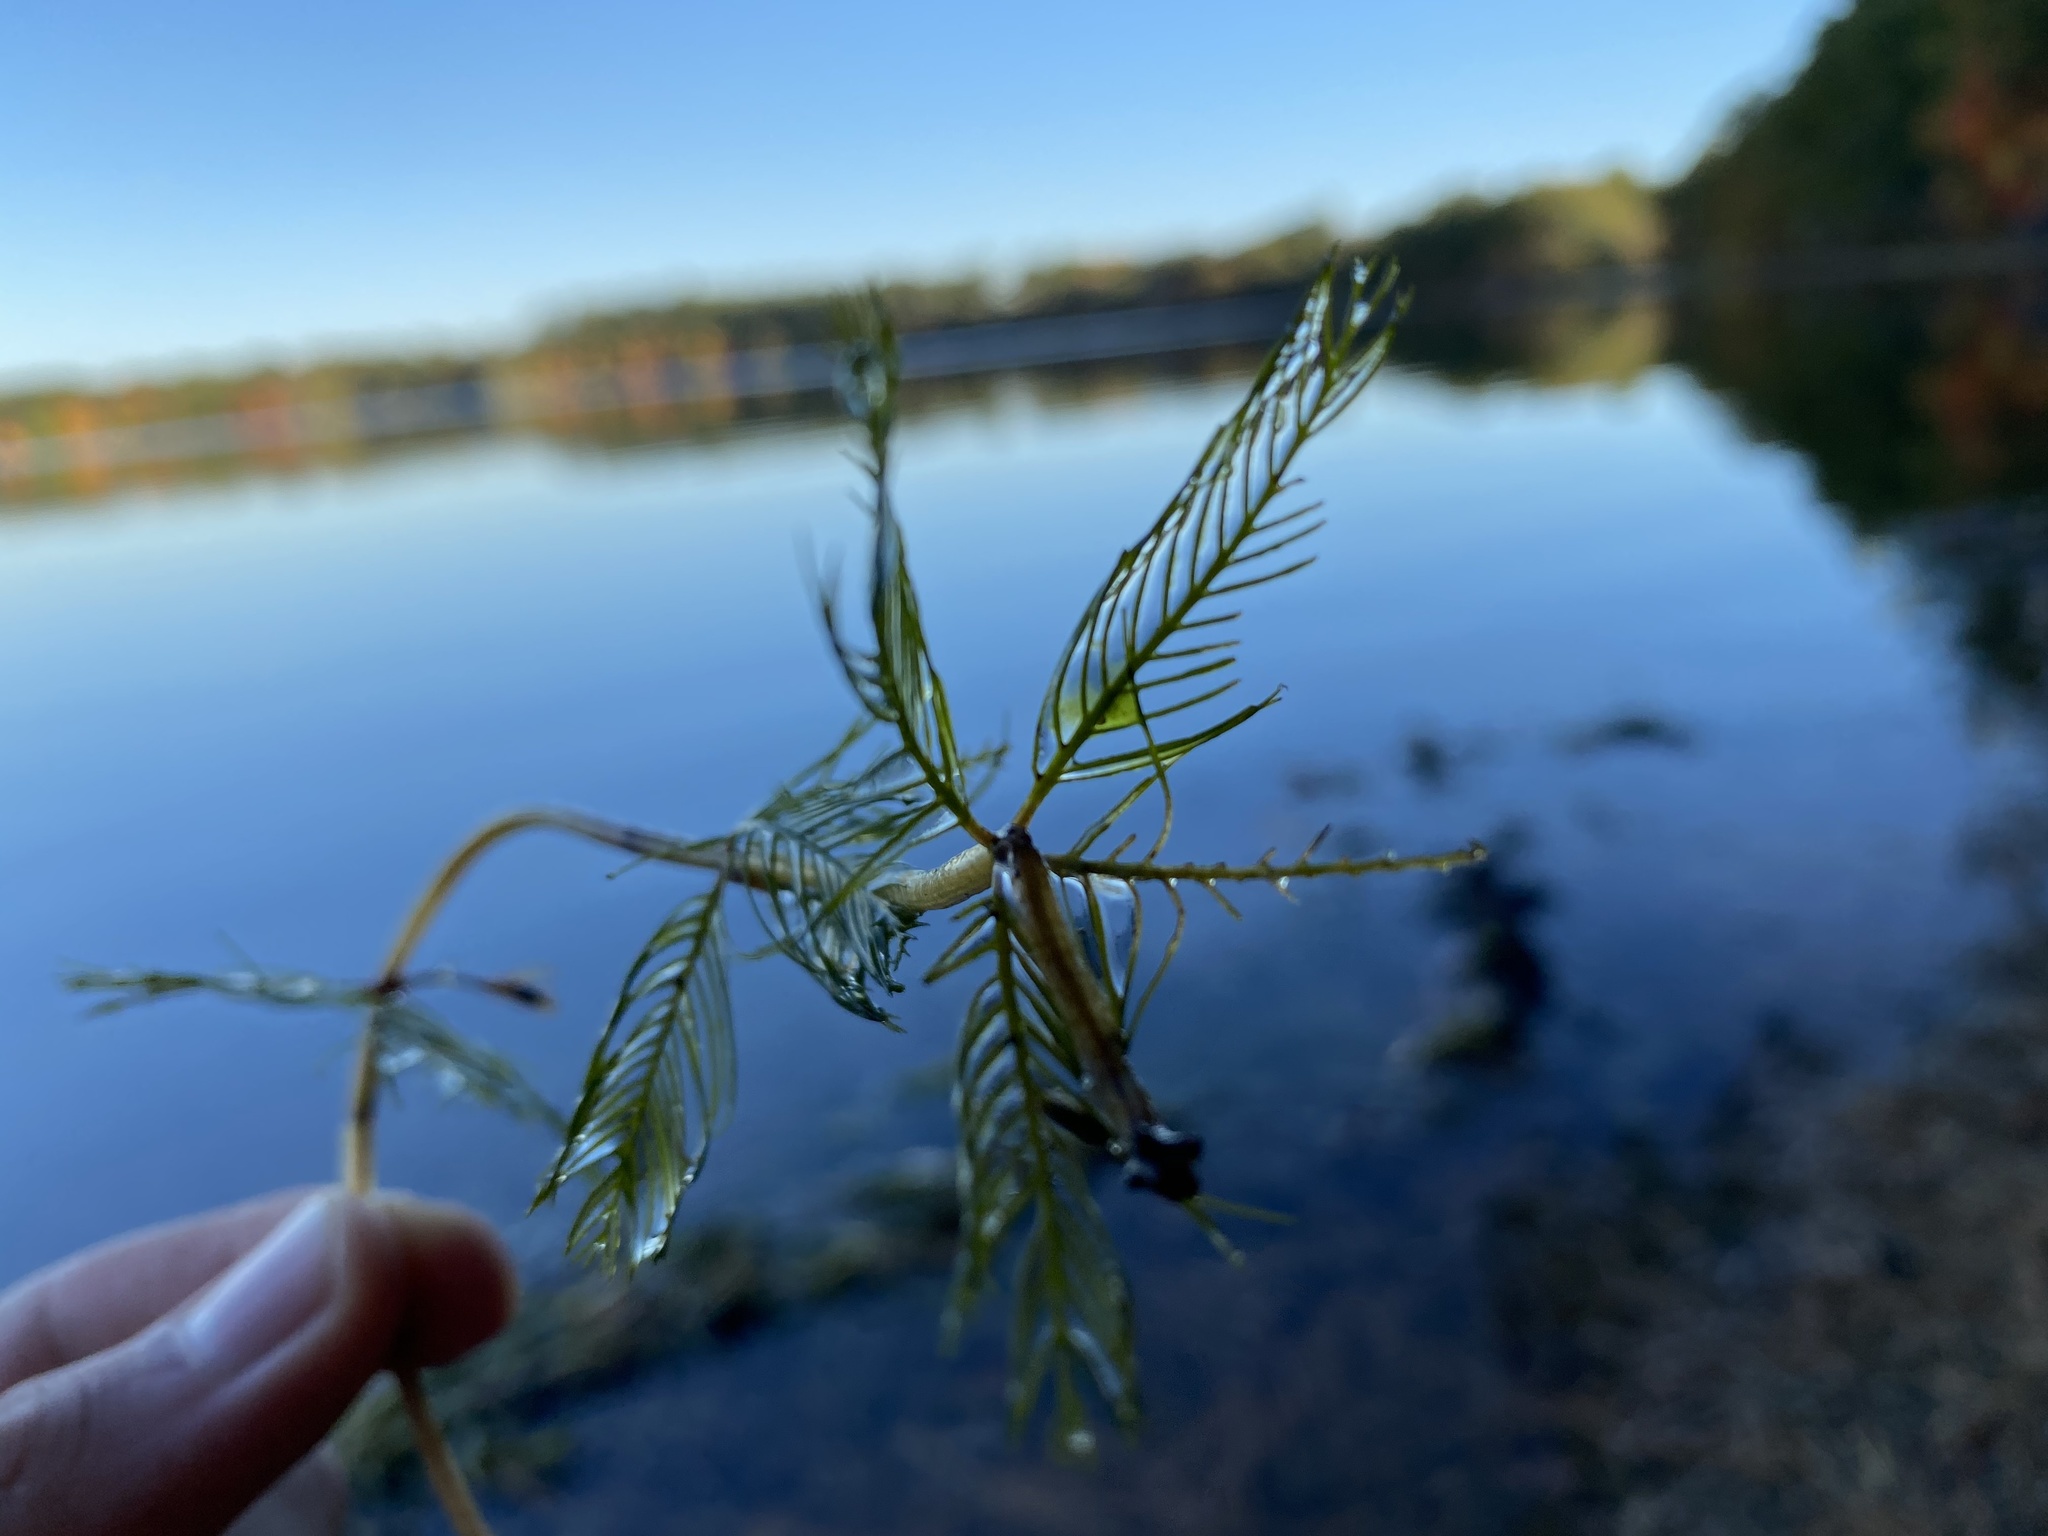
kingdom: Plantae
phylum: Tracheophyta
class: Magnoliopsida
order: Saxifragales
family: Haloragaceae
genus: Myriophyllum
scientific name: Myriophyllum spicatum
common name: Spiked water-milfoil
